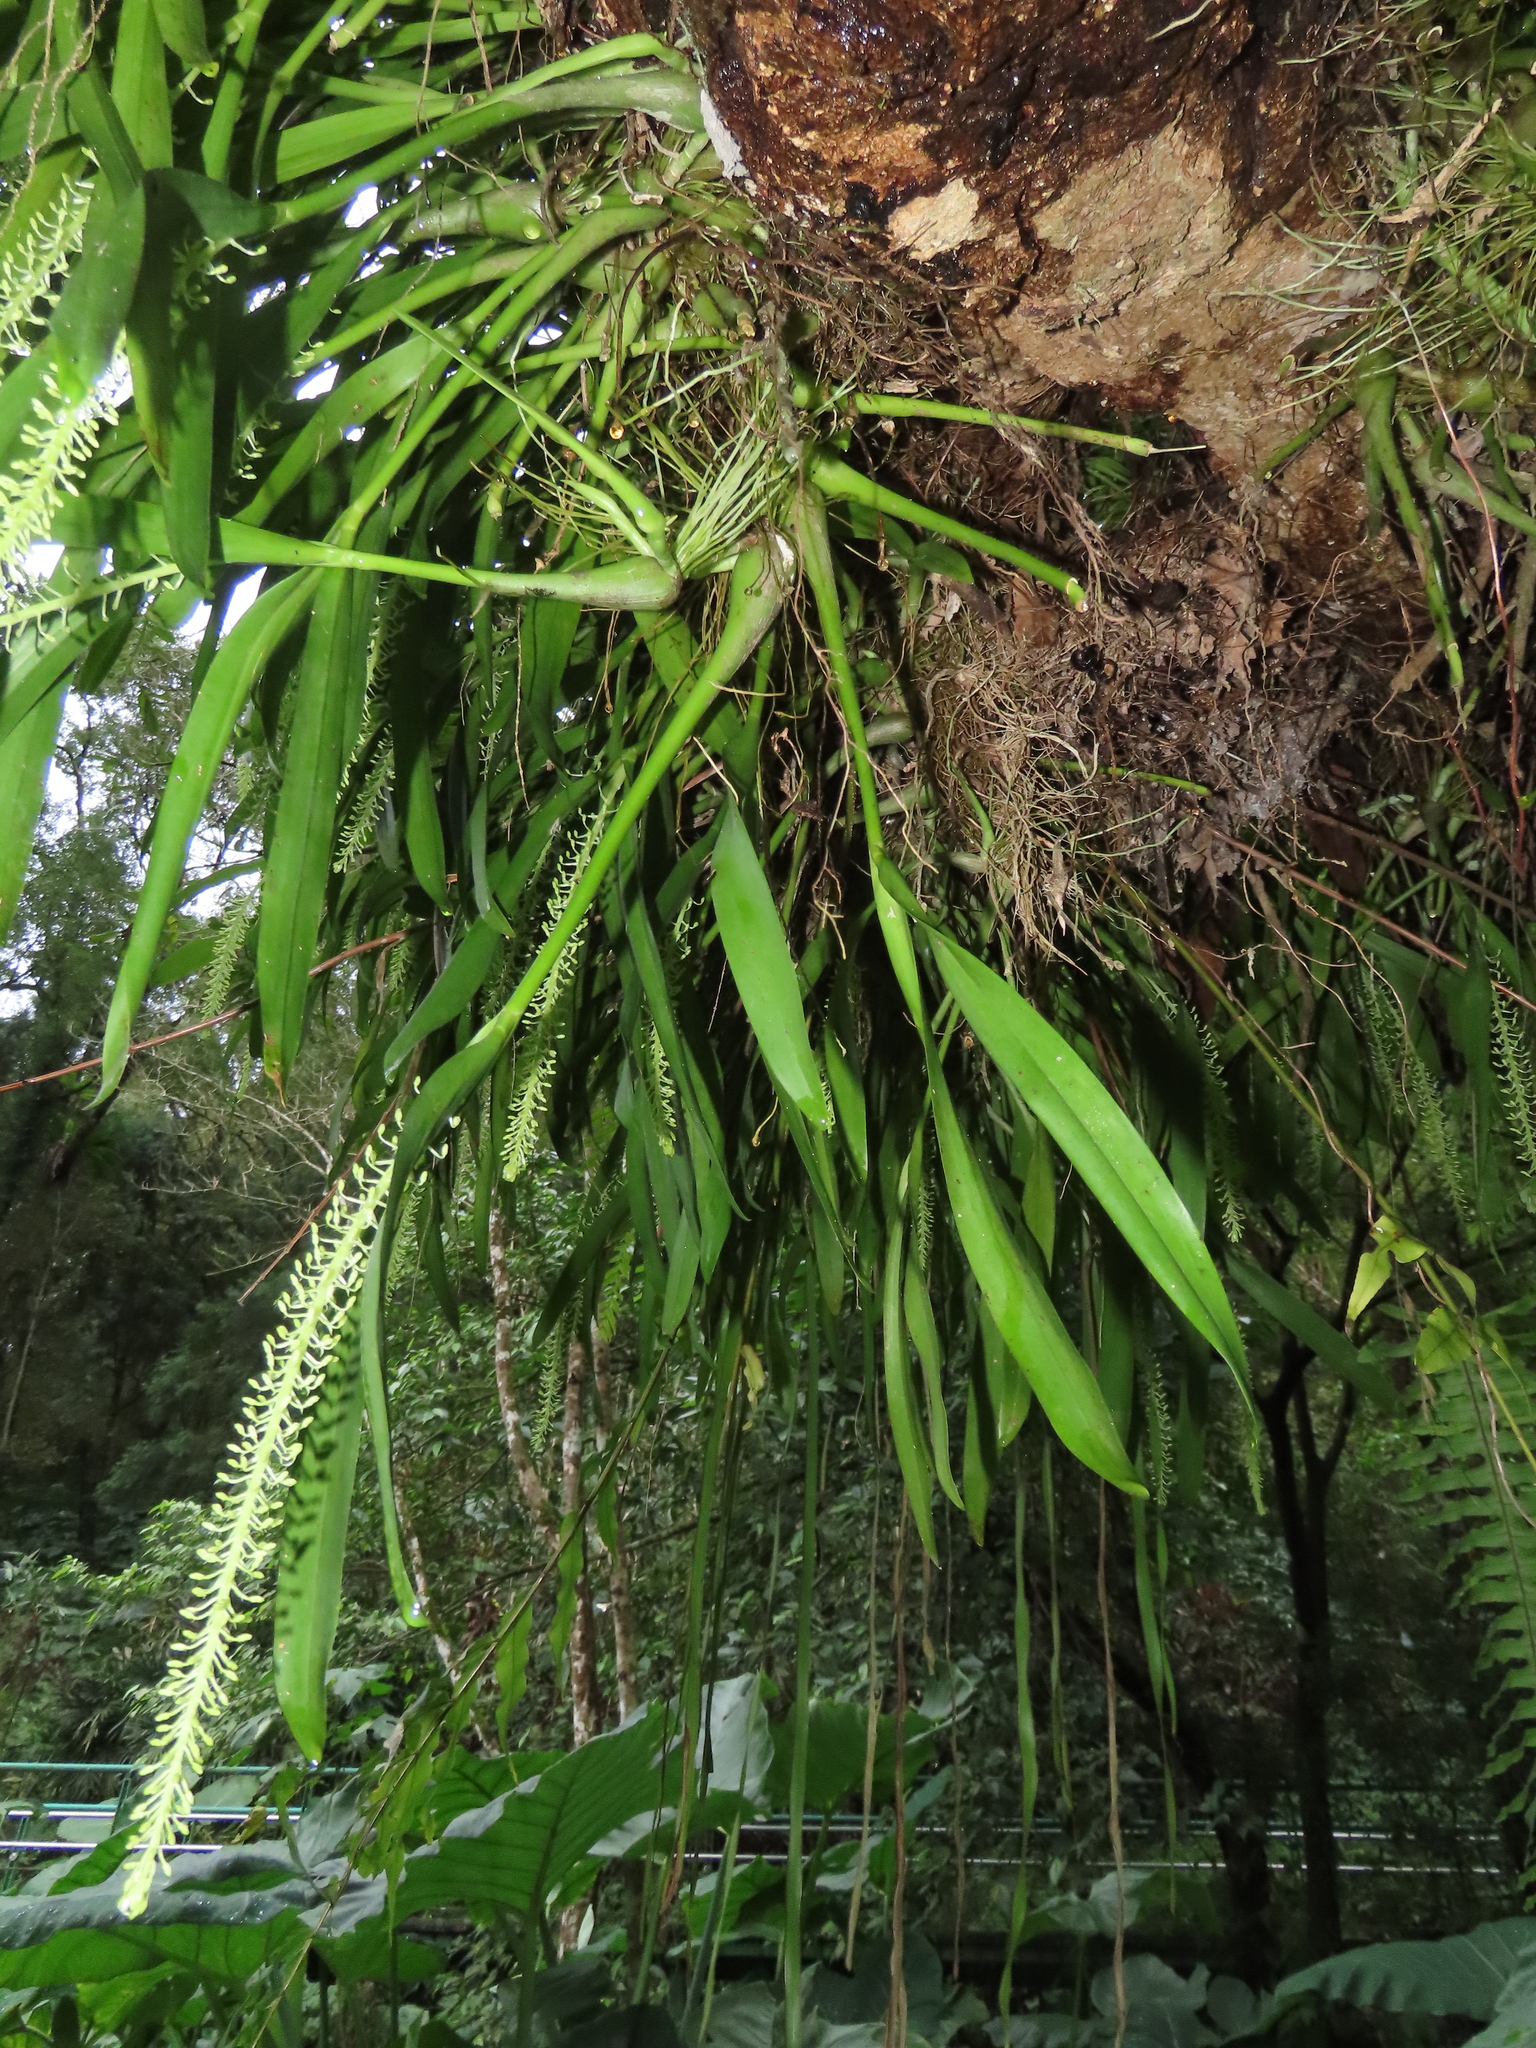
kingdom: Plantae
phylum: Tracheophyta
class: Liliopsida
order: Asparagales
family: Orchidaceae
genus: Liparis
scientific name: Liparis condylobulbon
